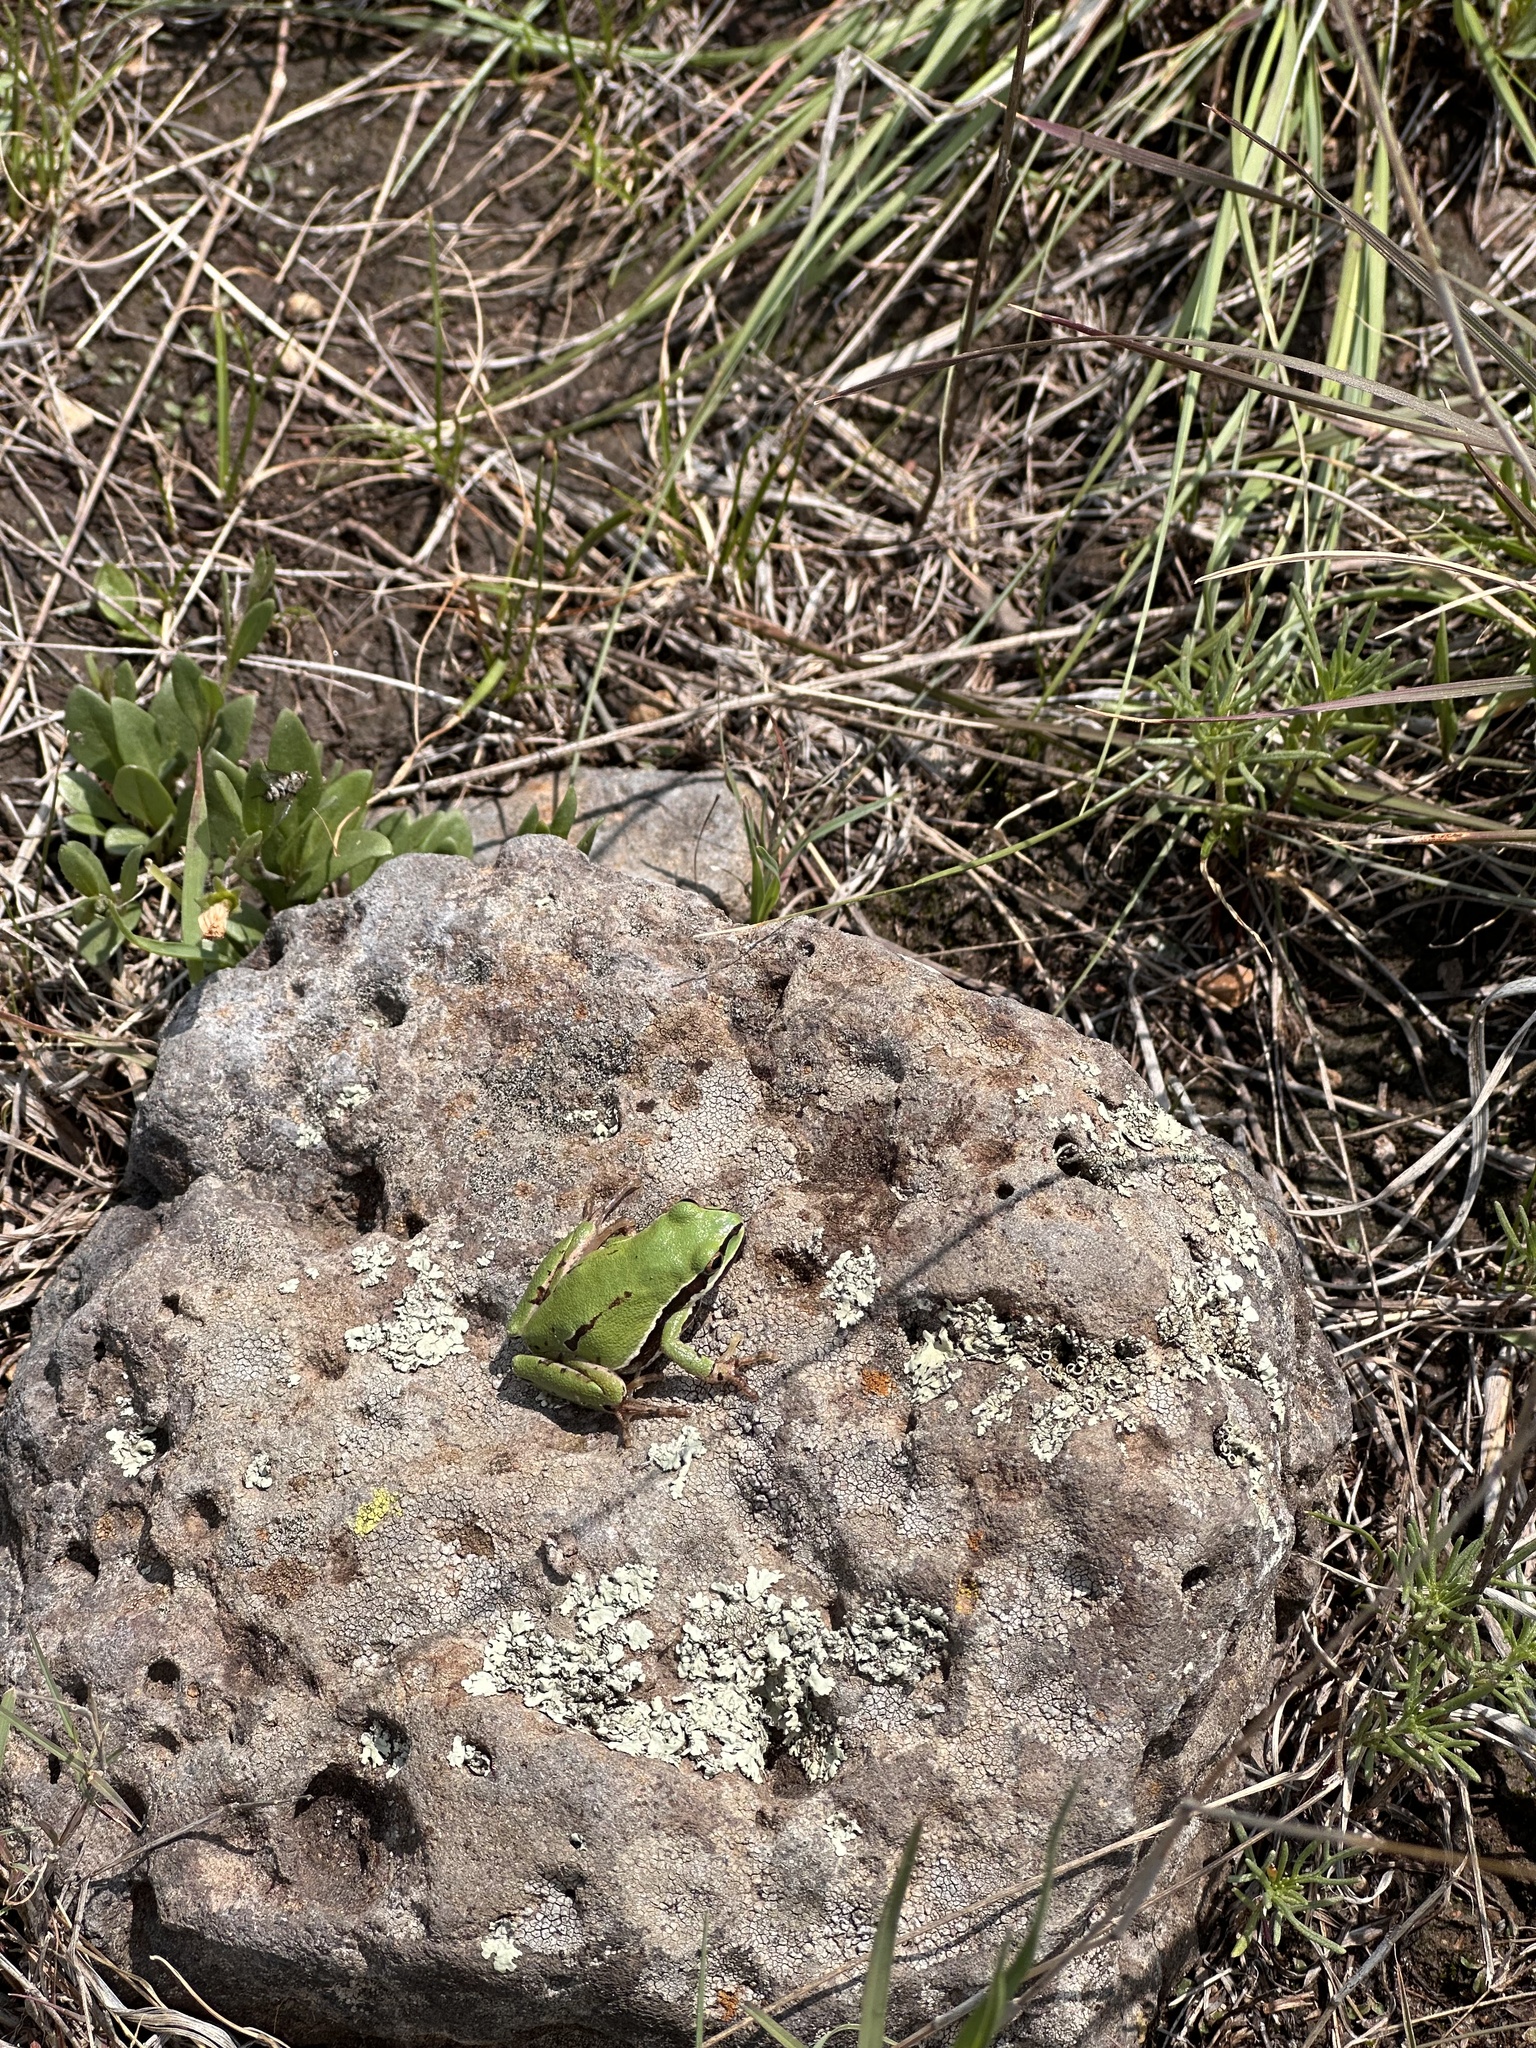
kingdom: Animalia
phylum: Chordata
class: Amphibia
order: Anura
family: Hylidae
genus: Dryophytes
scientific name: Dryophytes eximius
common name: Mountain treefrog
